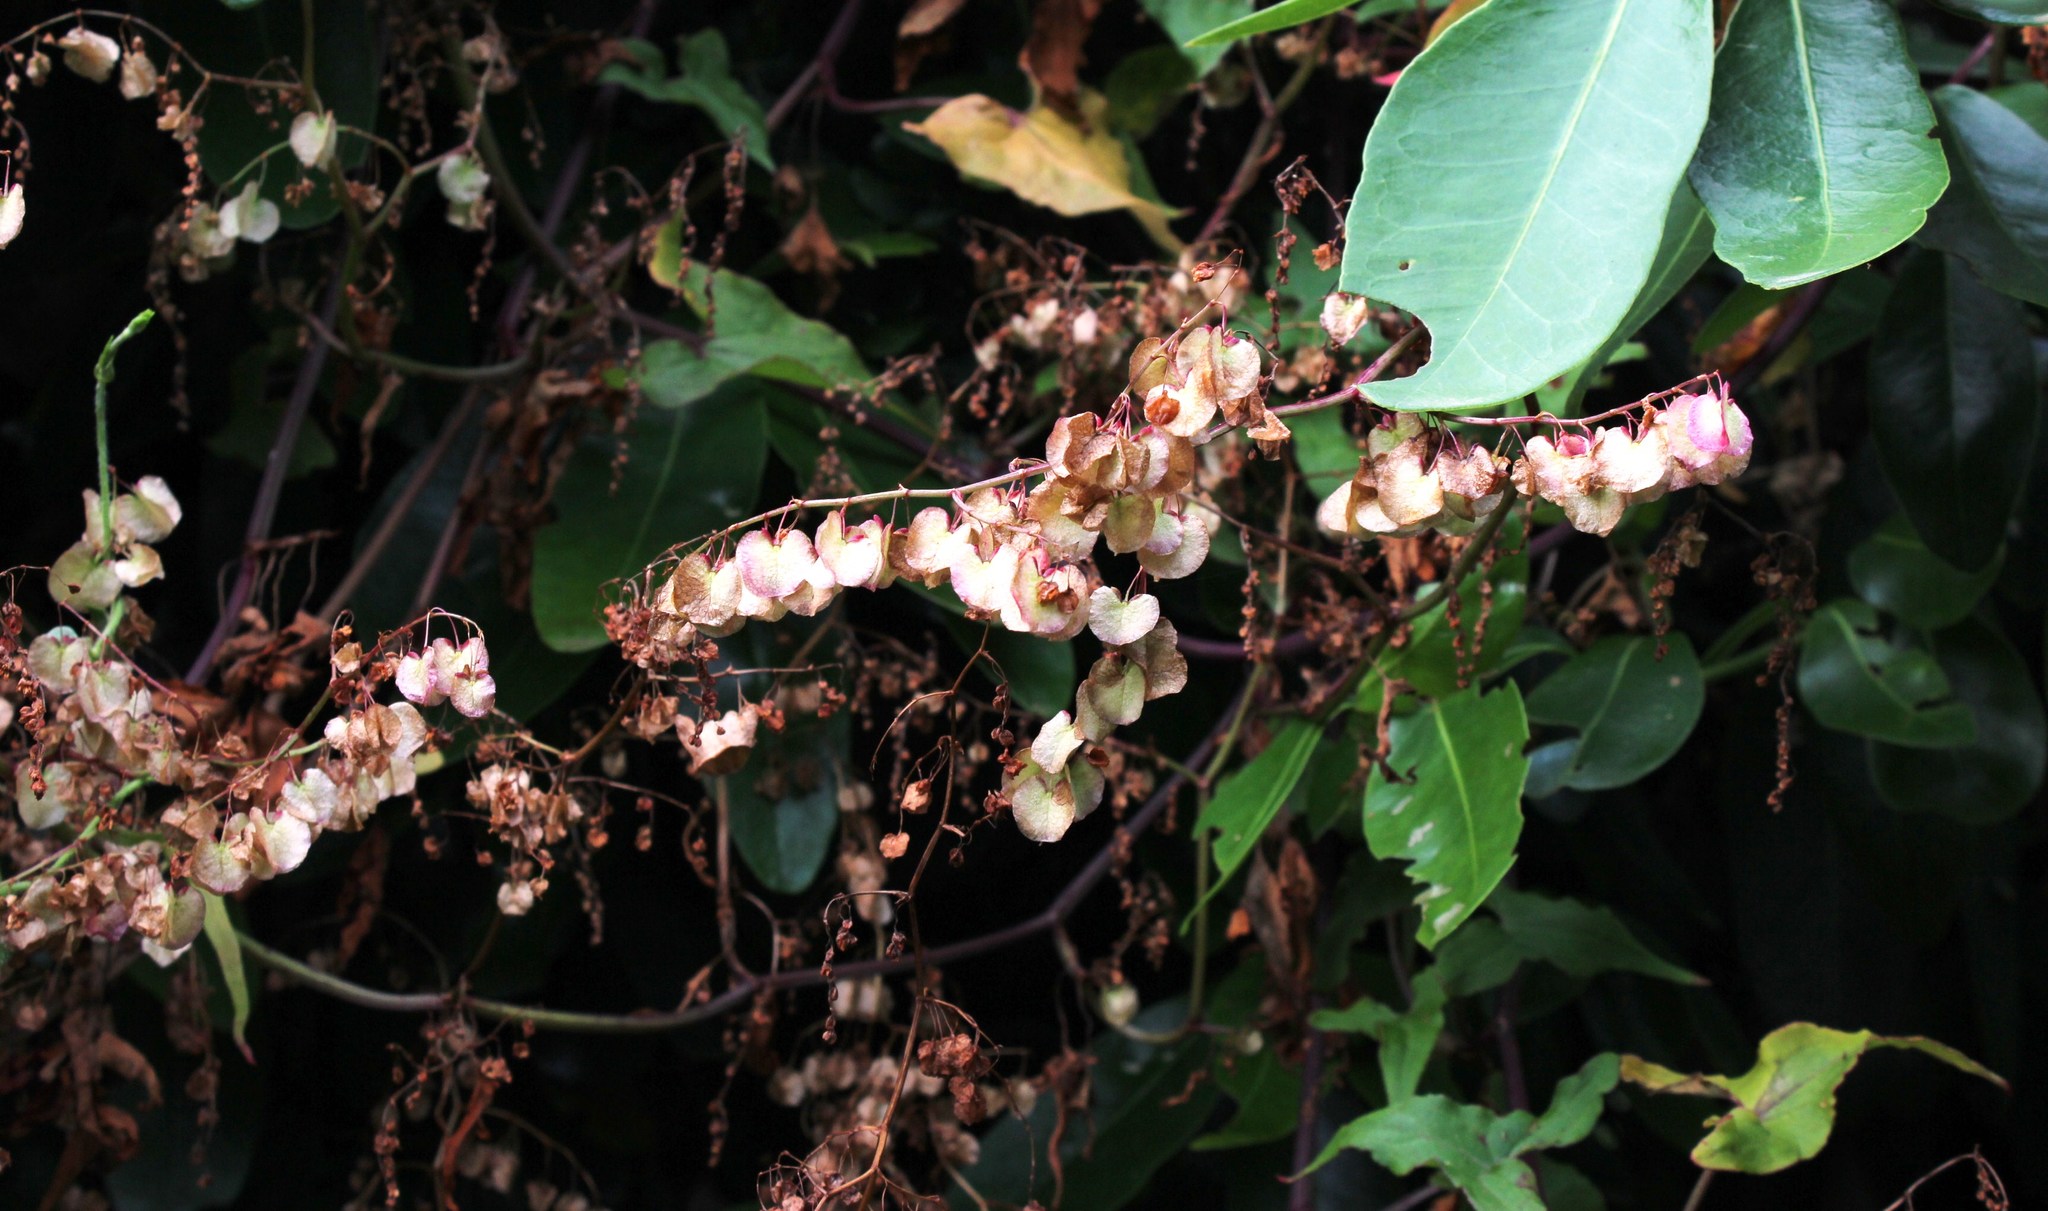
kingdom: Plantae
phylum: Tracheophyta
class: Magnoliopsida
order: Caryophyllales
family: Polygonaceae
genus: Rumex
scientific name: Rumex sagittatus
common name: Climbing dock
